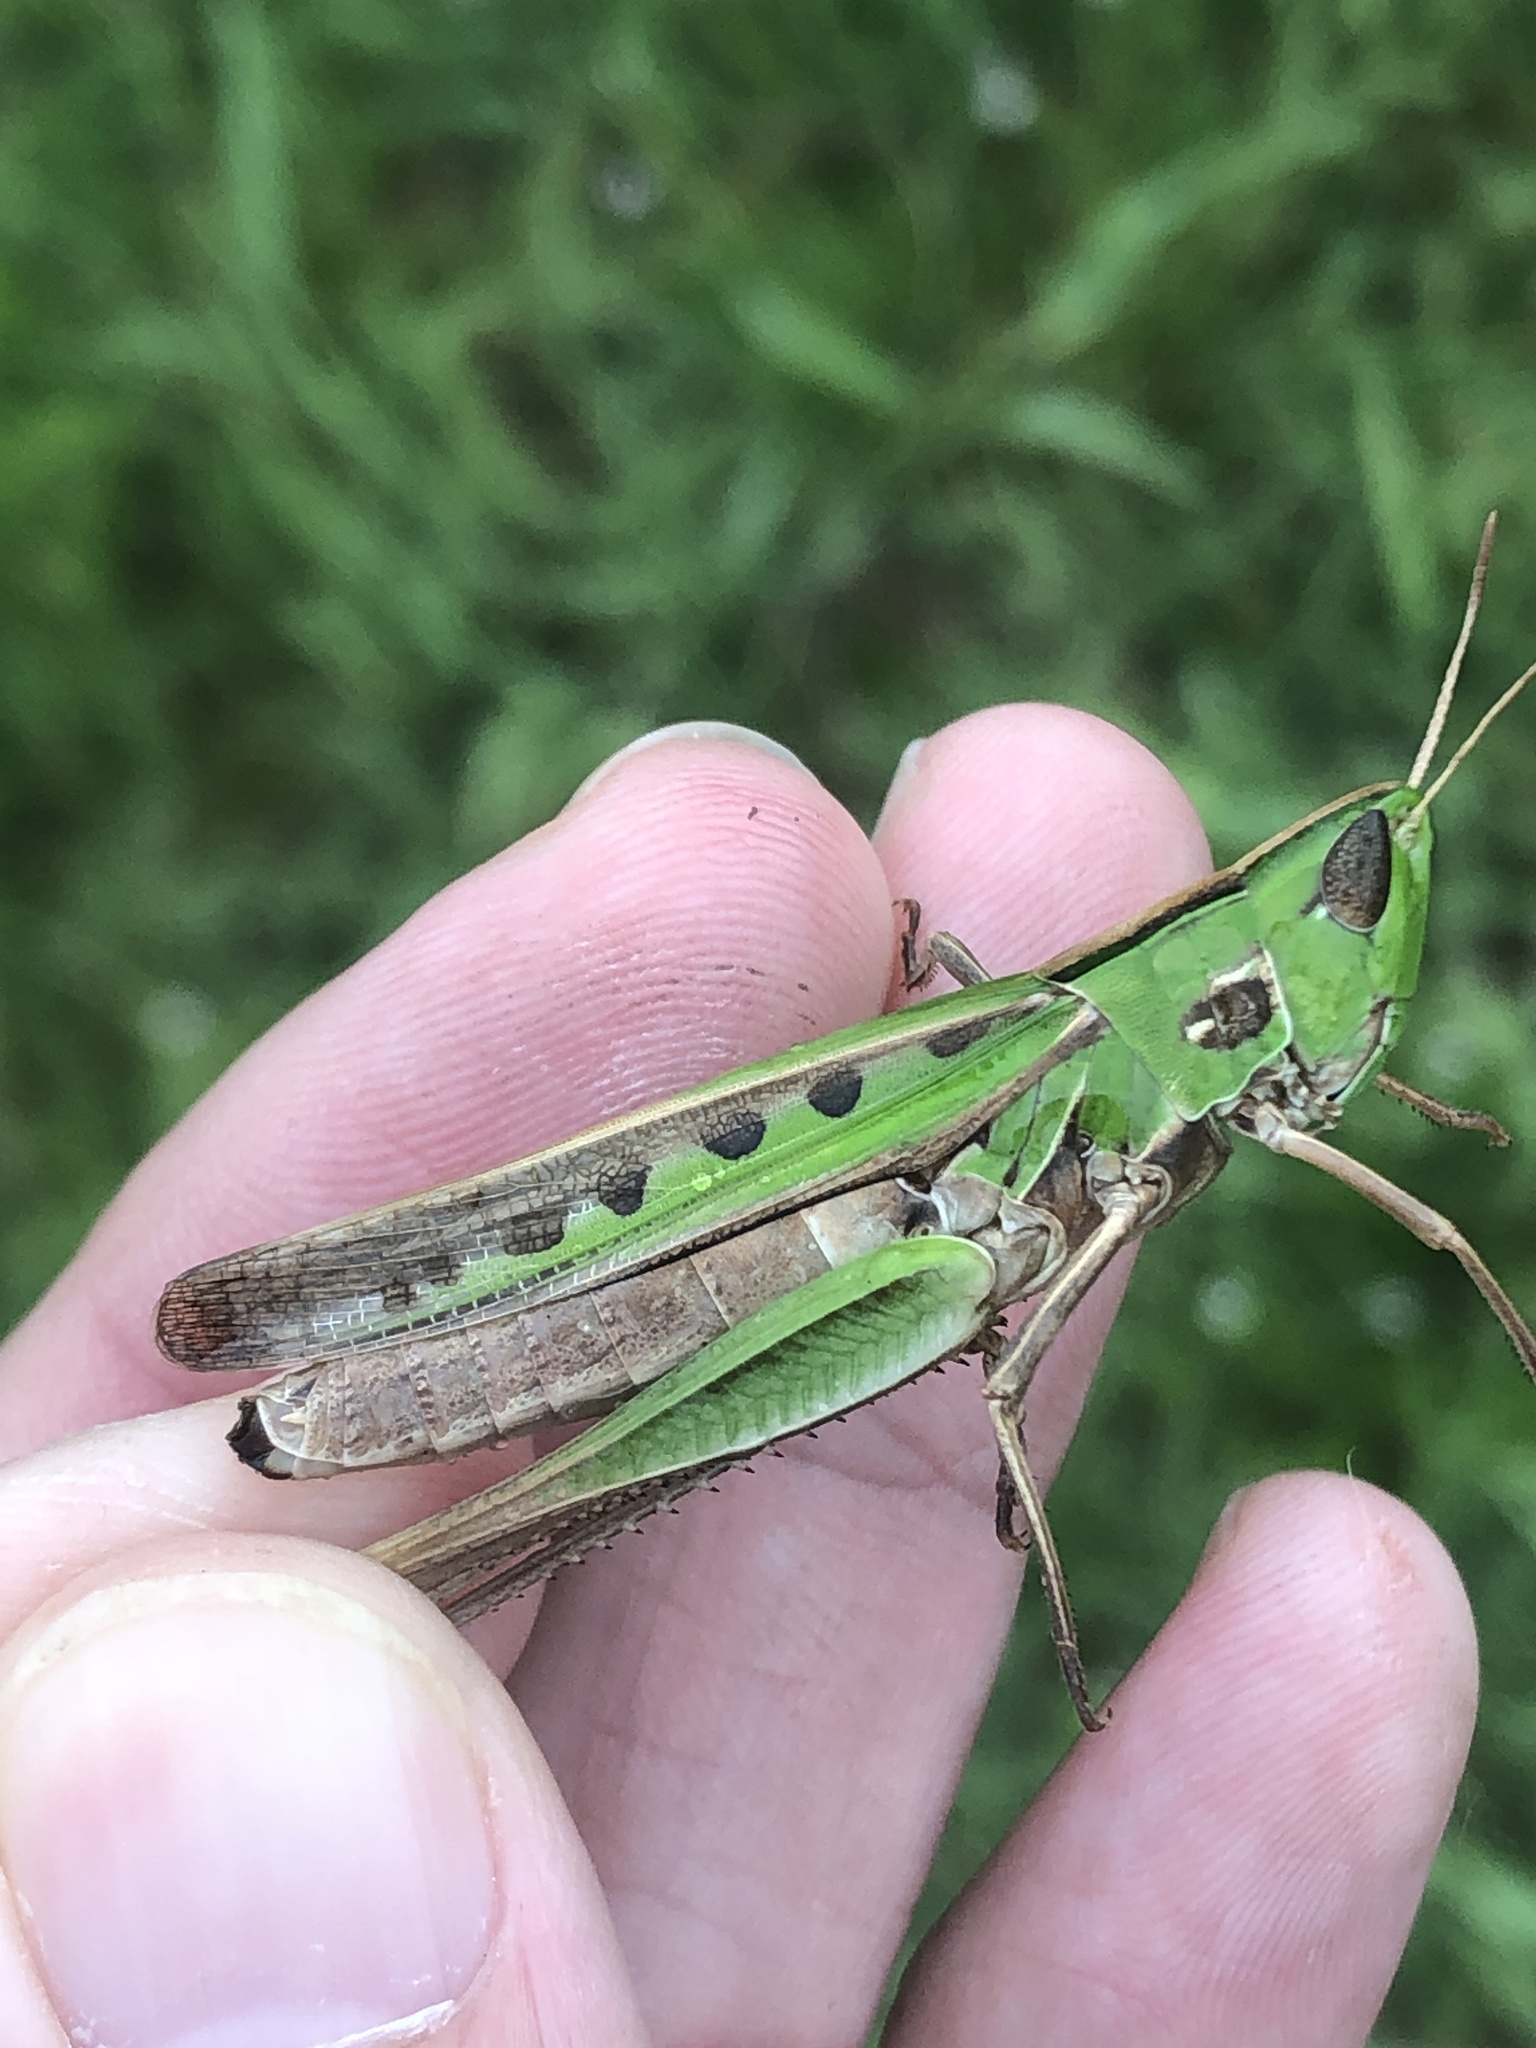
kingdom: Animalia
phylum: Arthropoda
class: Insecta
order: Orthoptera
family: Acrididae
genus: Syrbula
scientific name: Syrbula admirabilis
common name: Handsome grasshopper
